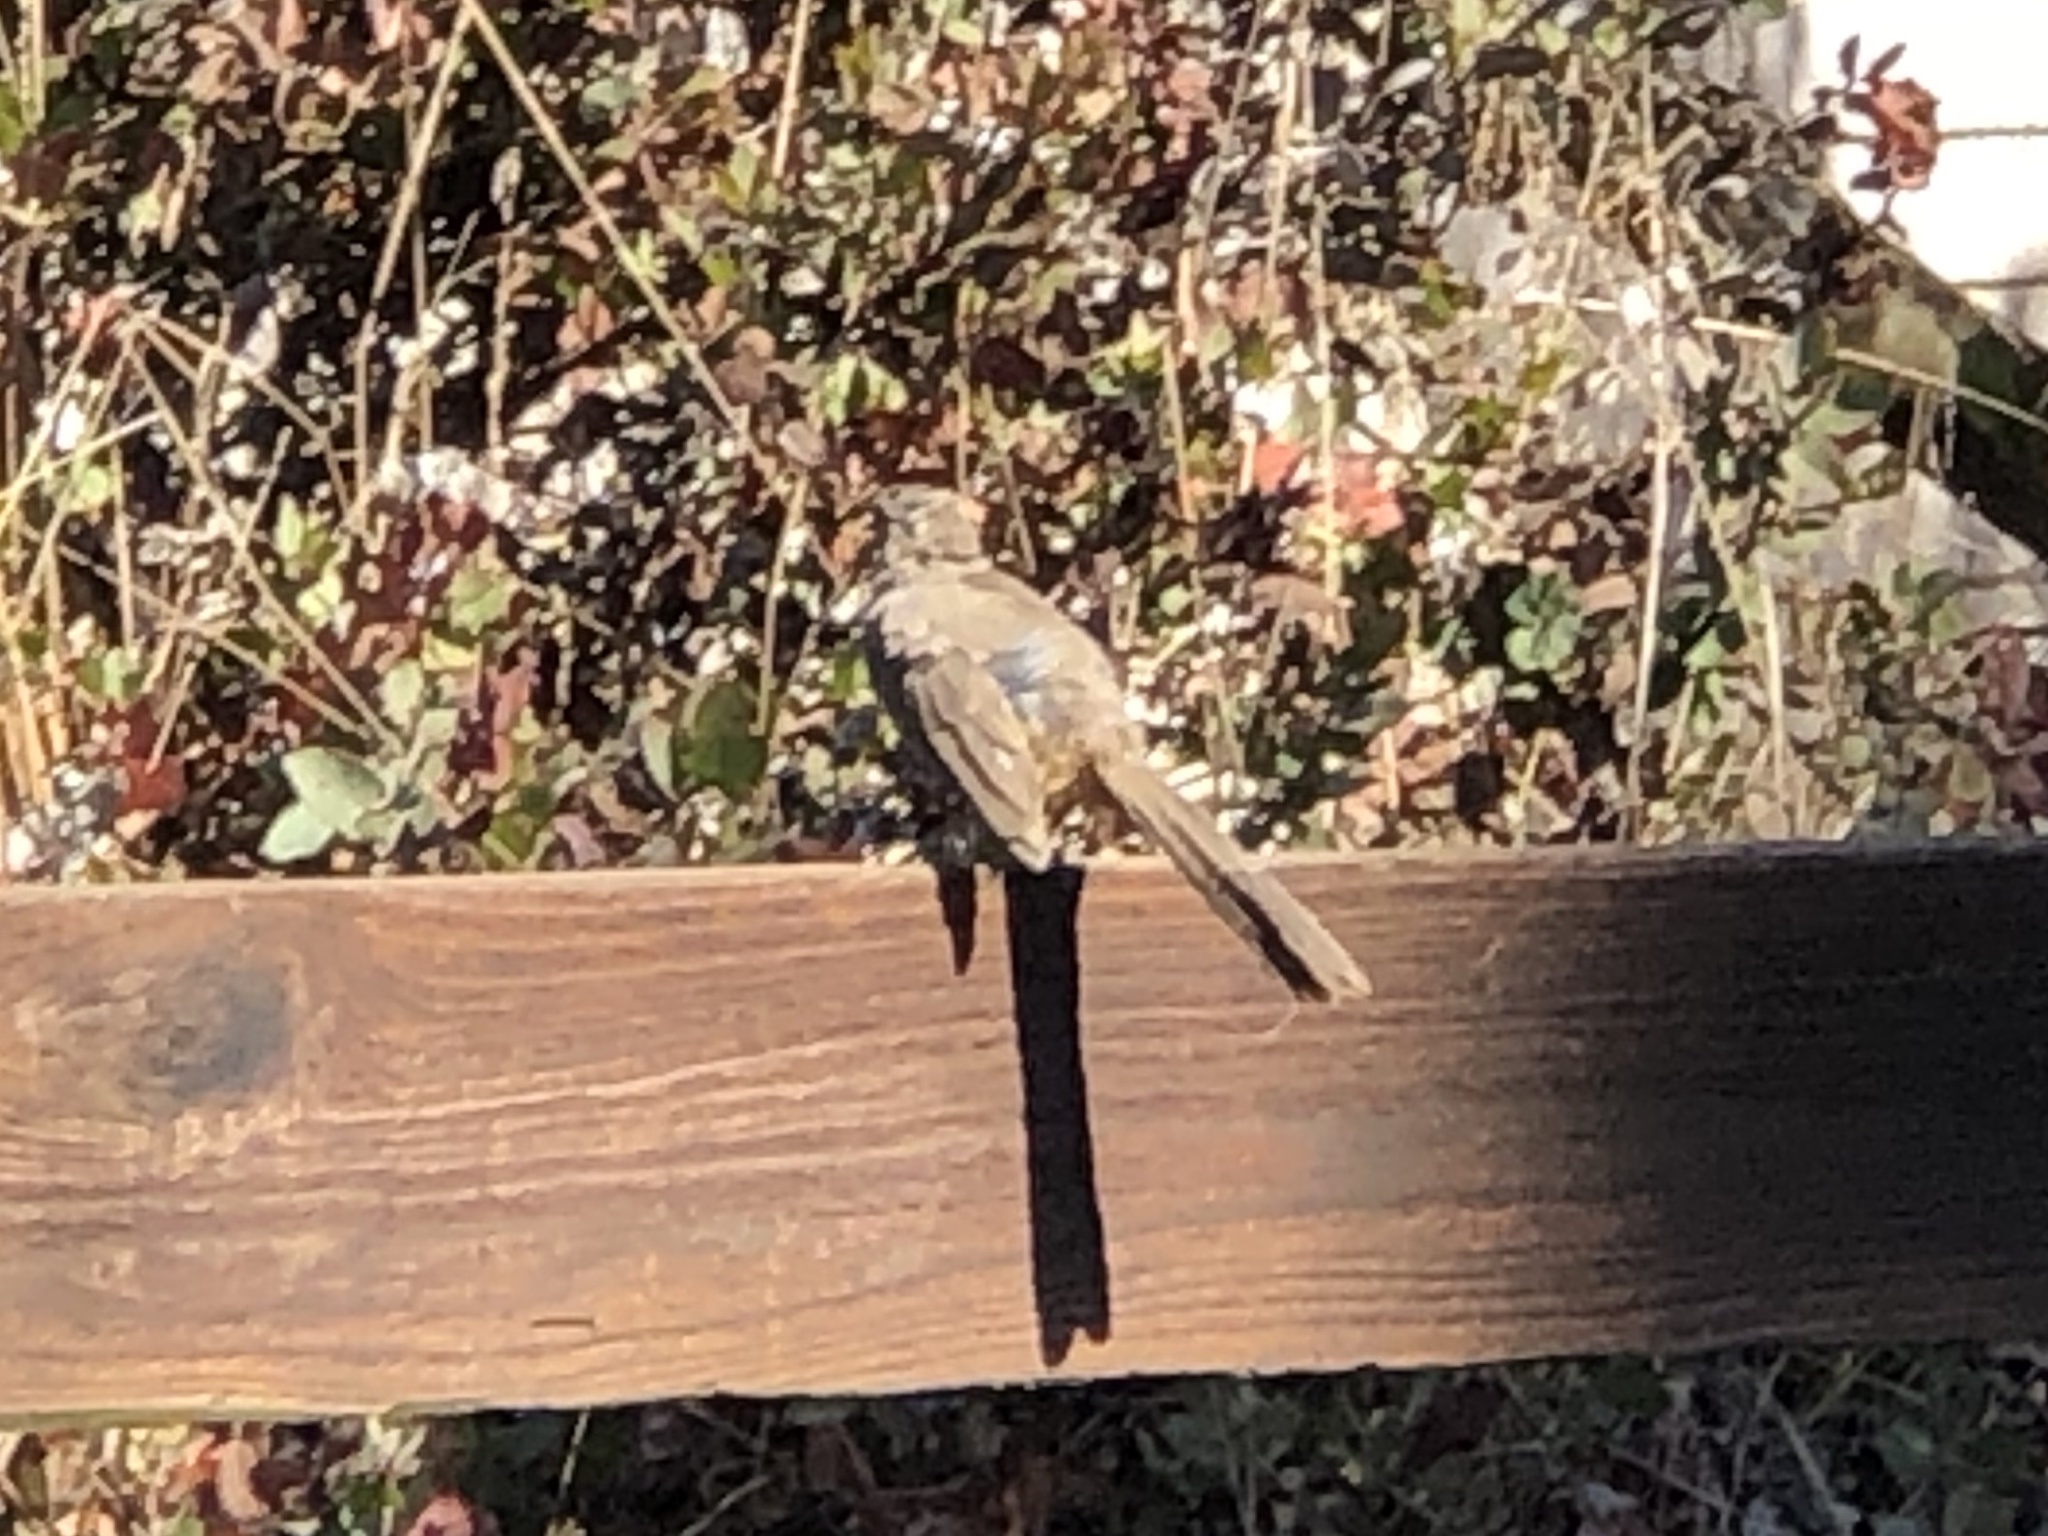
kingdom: Animalia
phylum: Chordata
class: Aves
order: Passeriformes
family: Passerellidae
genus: Melozone
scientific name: Melozone crissalis
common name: California towhee
